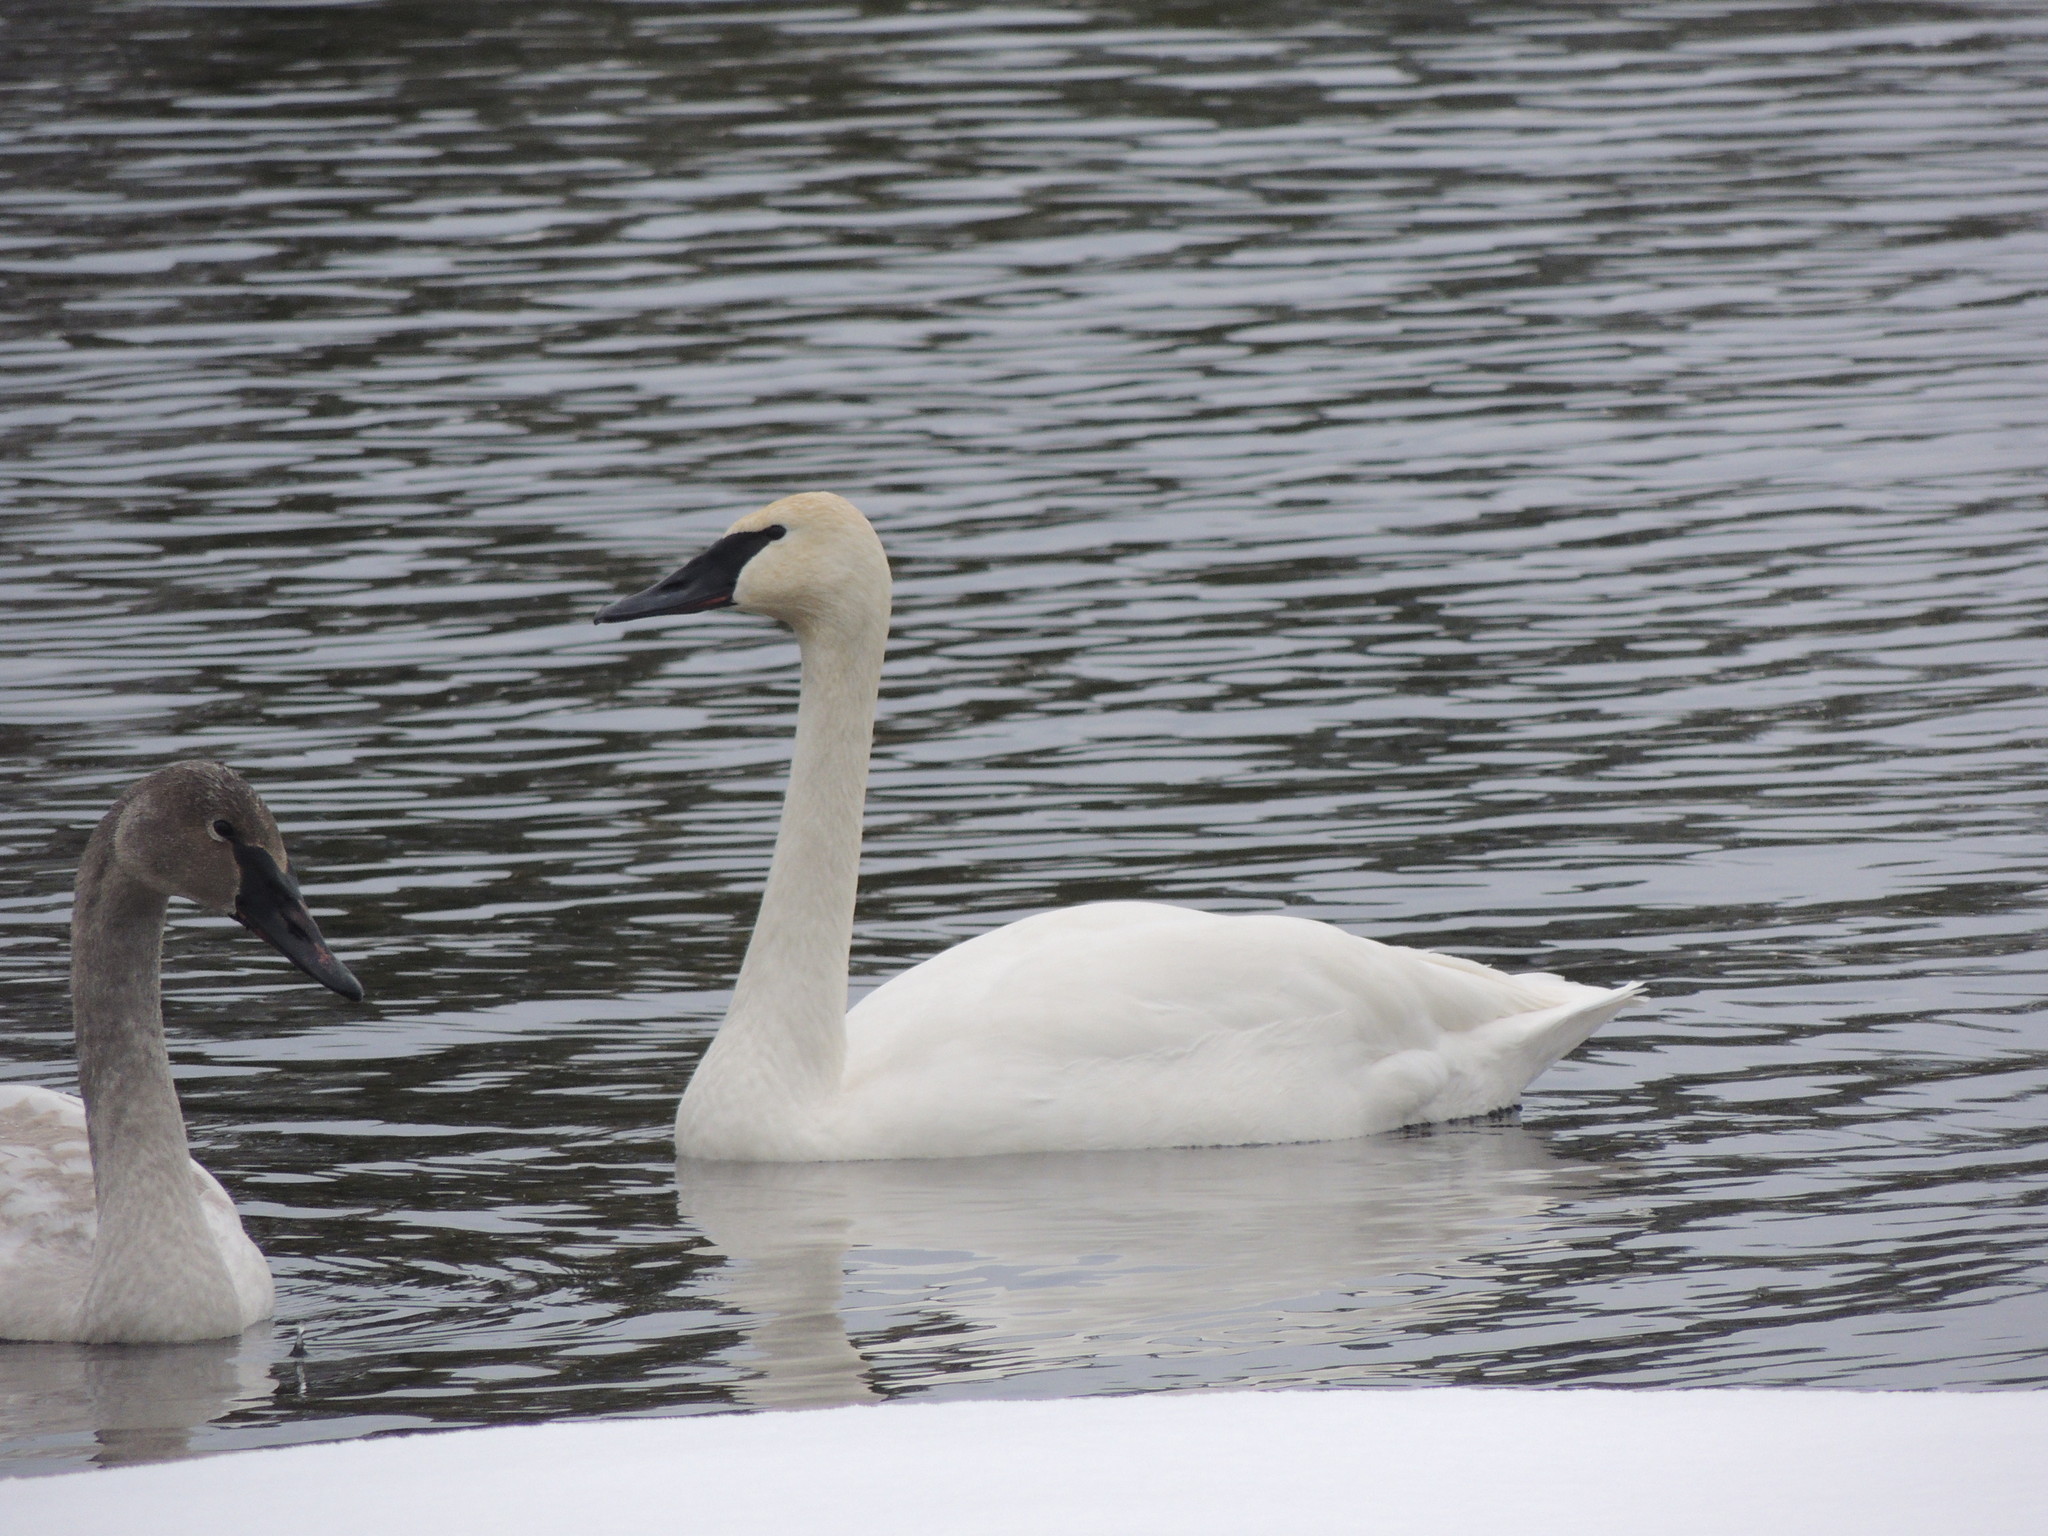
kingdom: Animalia
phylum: Chordata
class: Aves
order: Anseriformes
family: Anatidae
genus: Cygnus
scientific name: Cygnus buccinator
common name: Trumpeter swan
